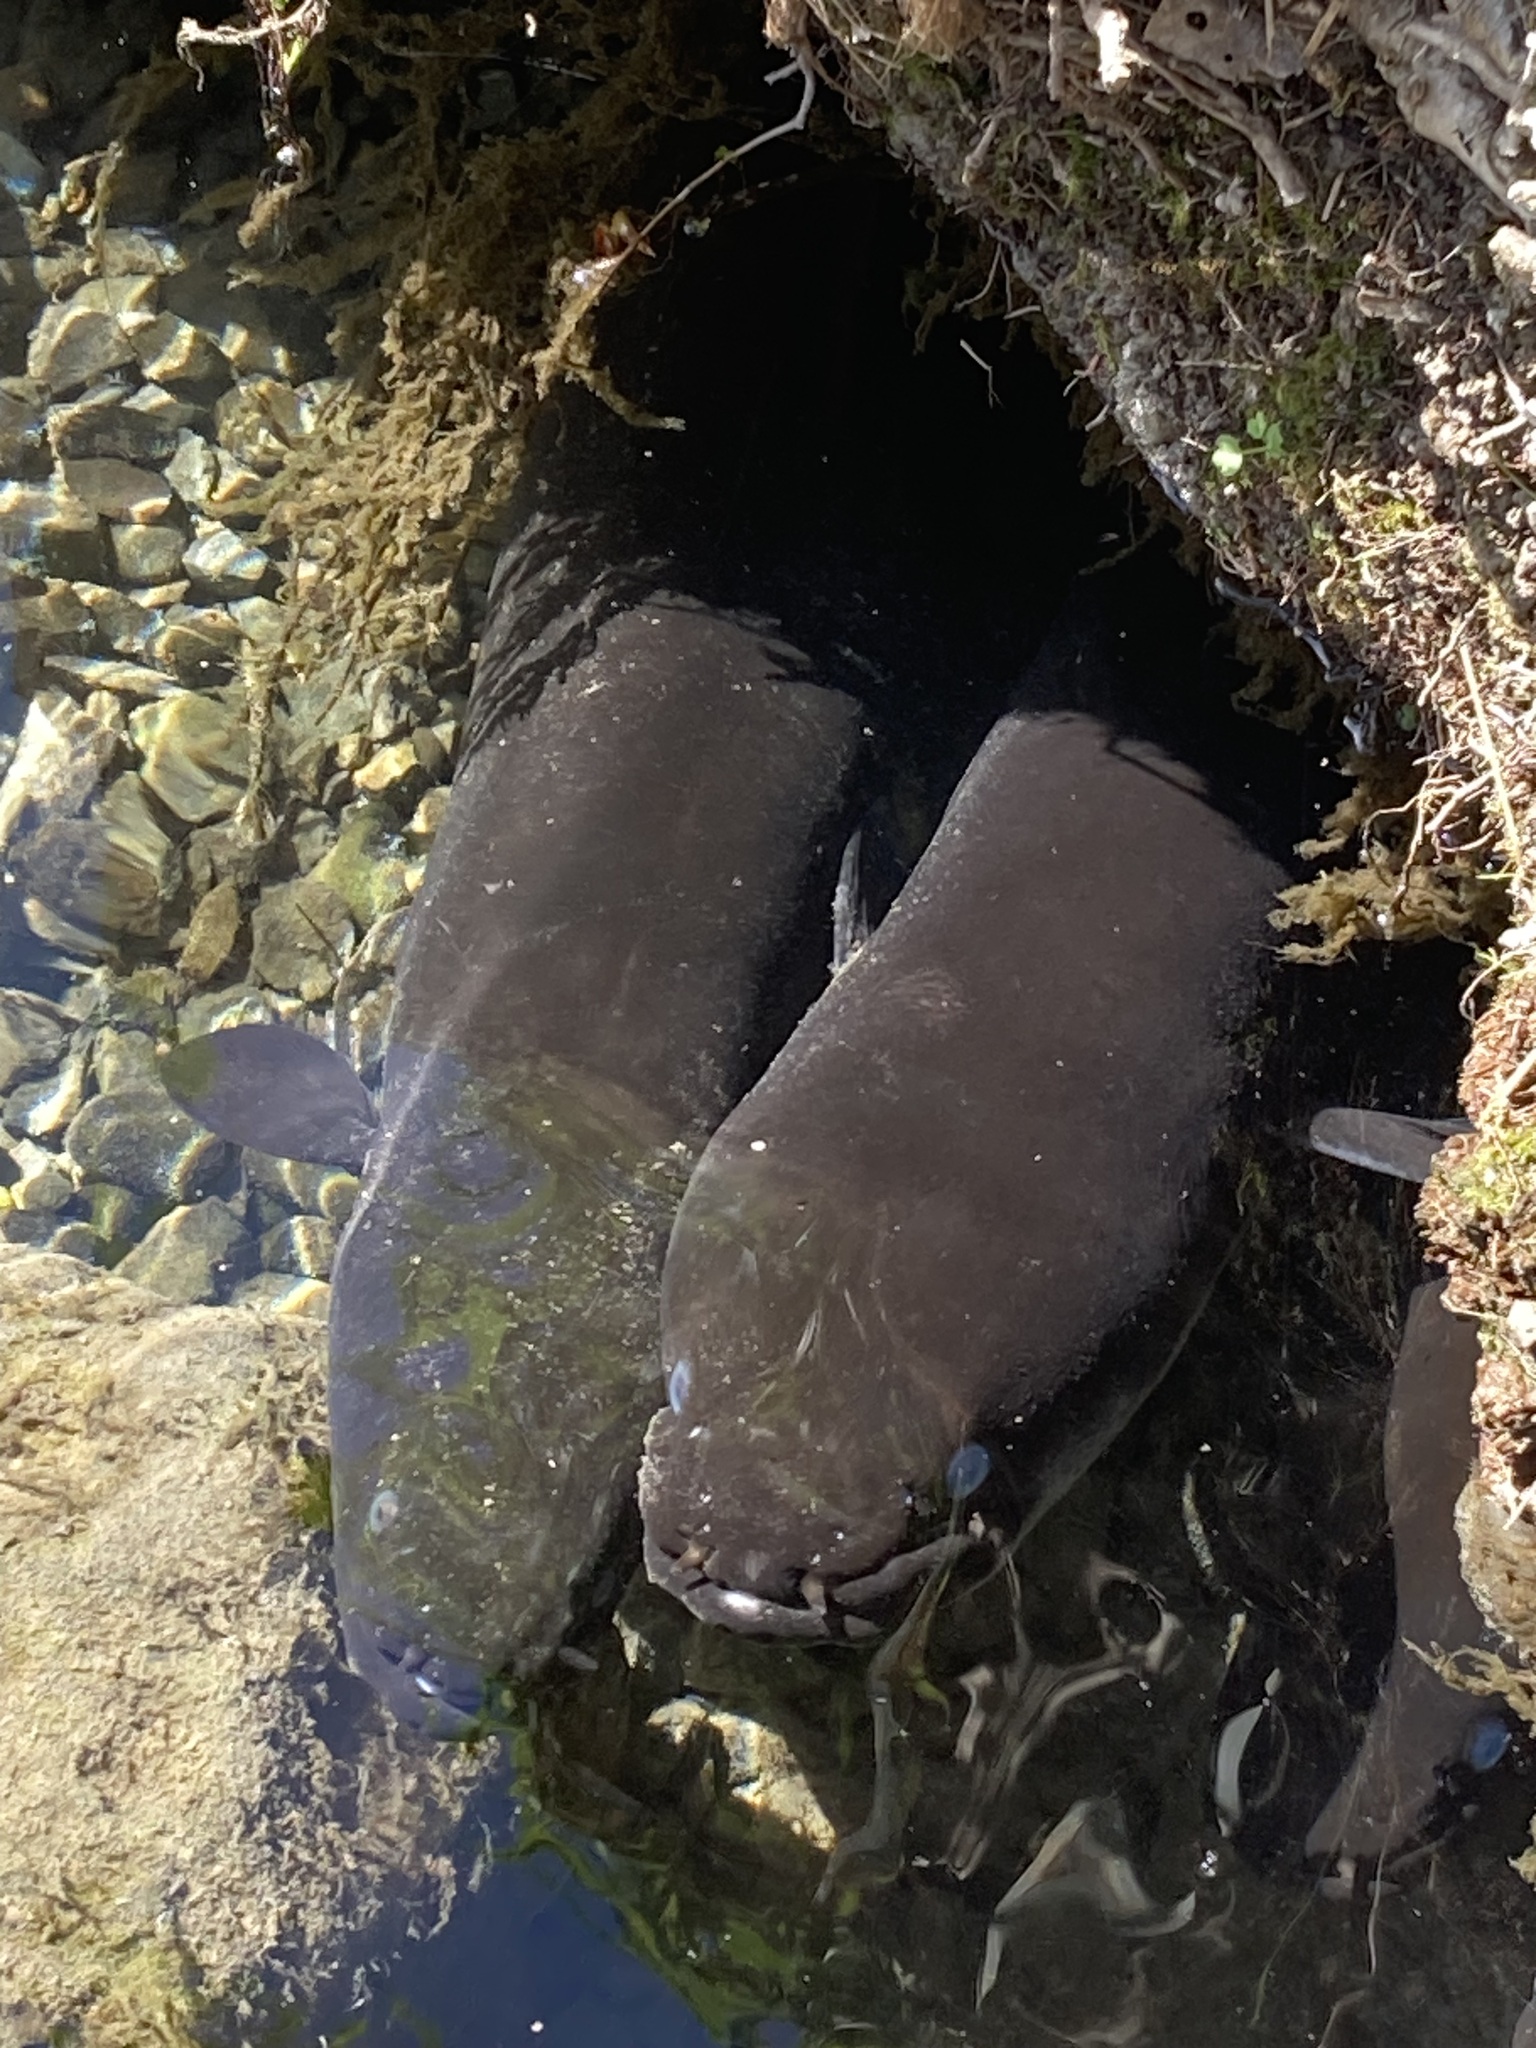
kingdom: Animalia
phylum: Chordata
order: Anguilliformes
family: Anguillidae
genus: Anguilla
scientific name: Anguilla dieffenbachii
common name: New zealand longfin eel
